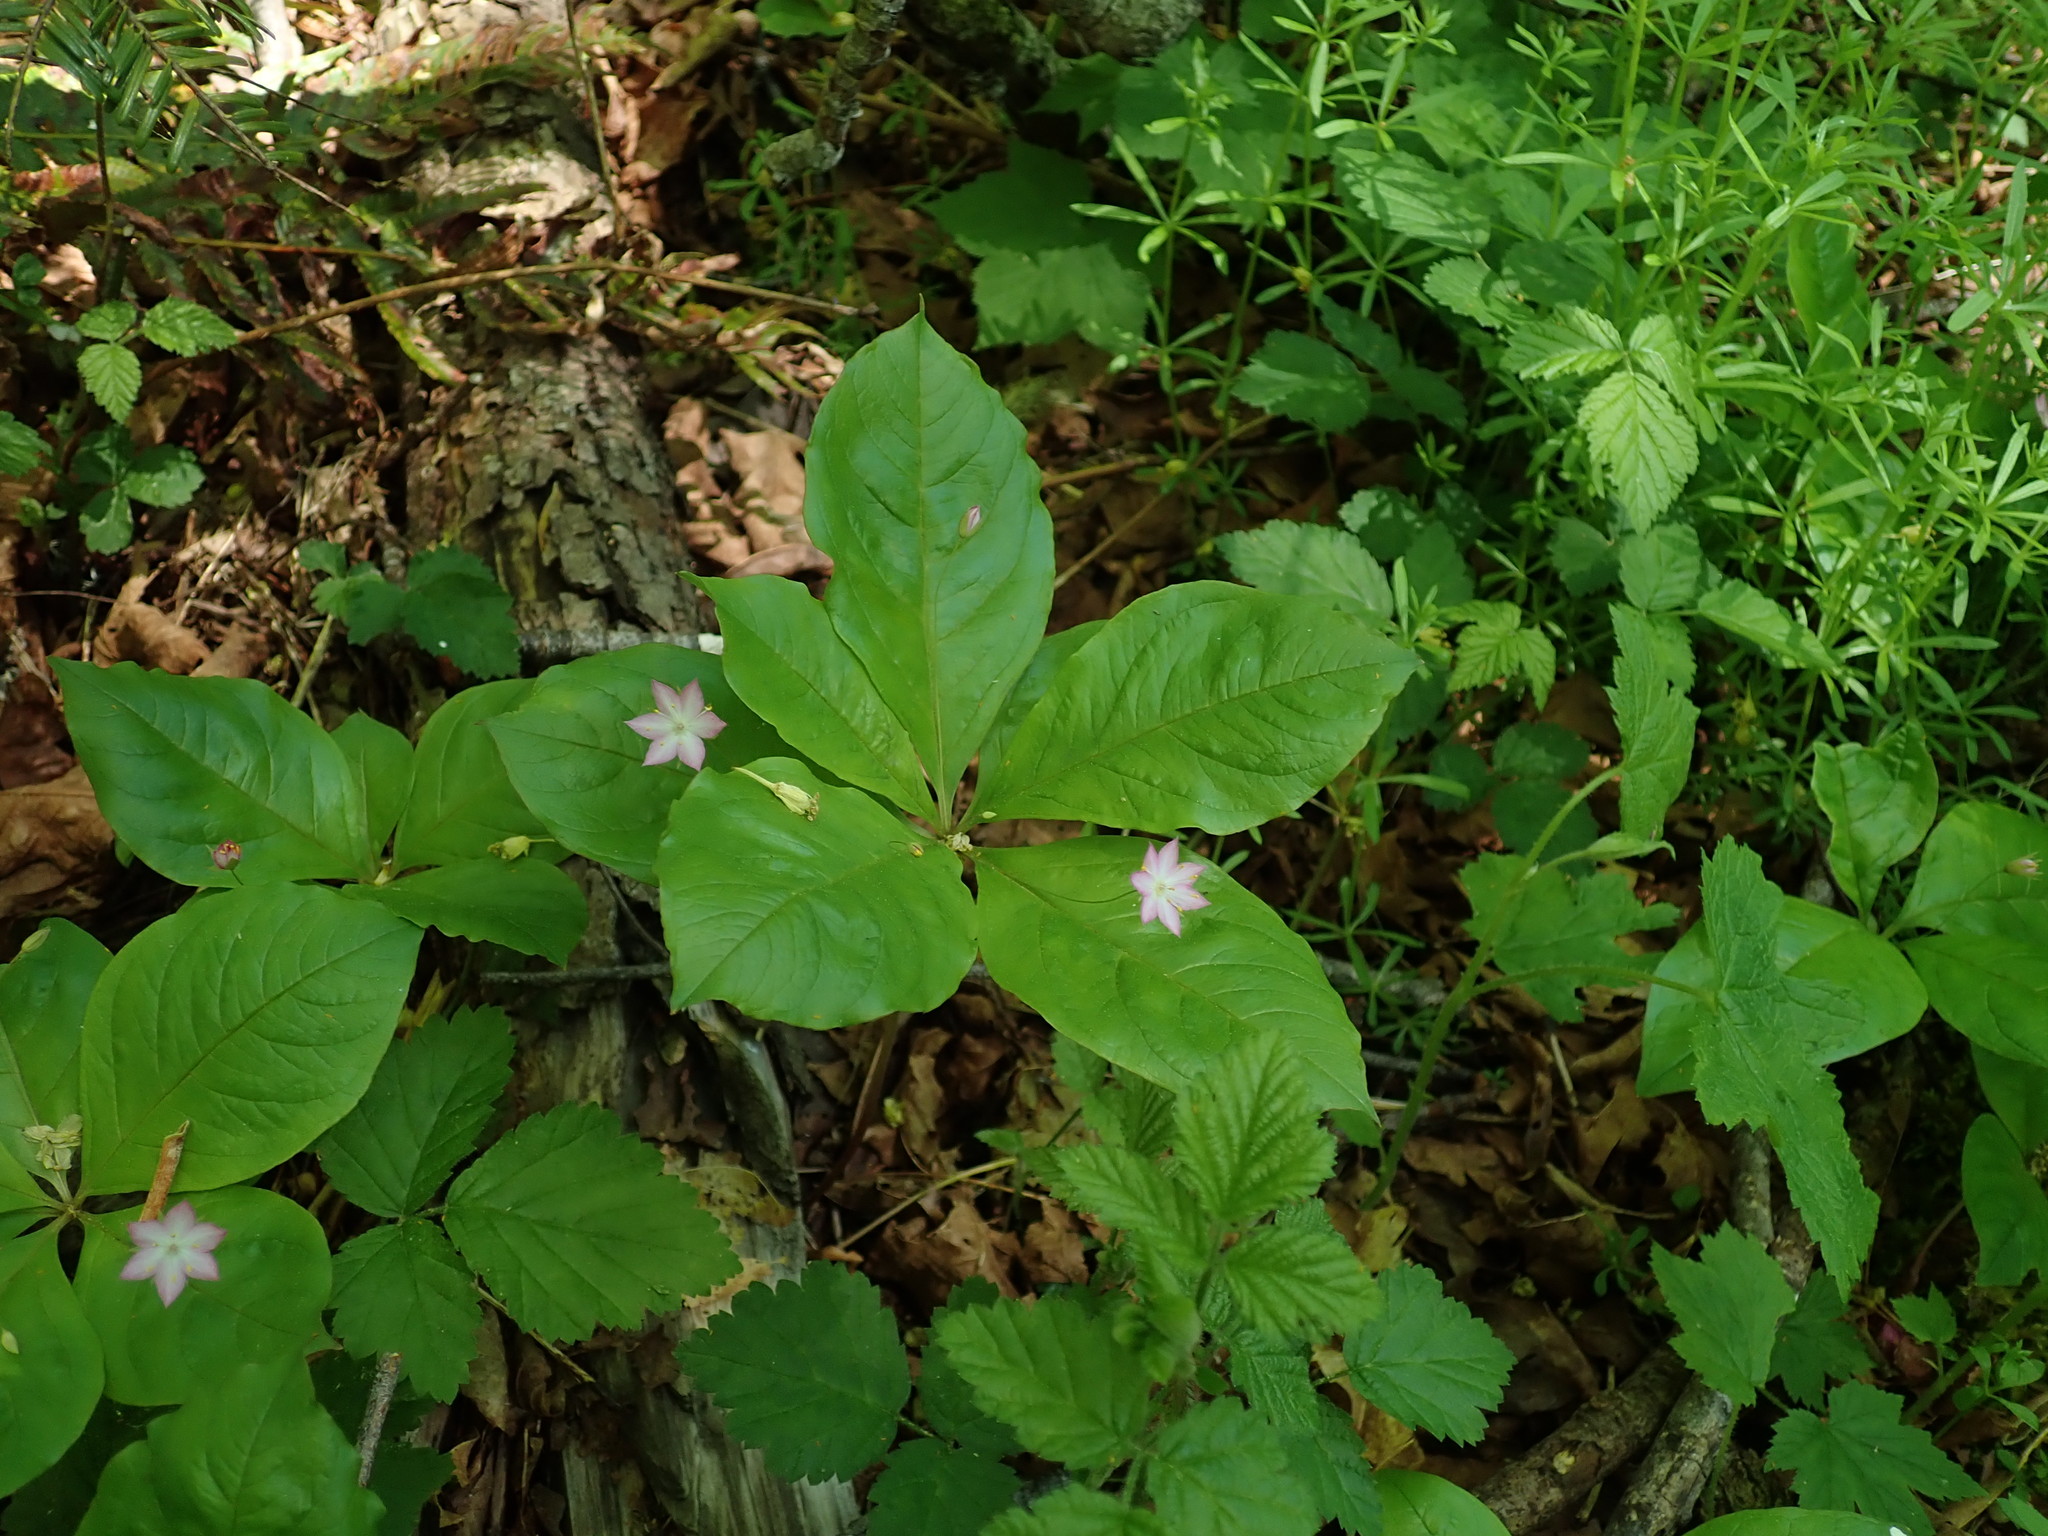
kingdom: Plantae
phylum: Tracheophyta
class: Magnoliopsida
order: Ericales
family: Primulaceae
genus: Lysimachia
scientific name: Lysimachia latifolia
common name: Pacific starflower
